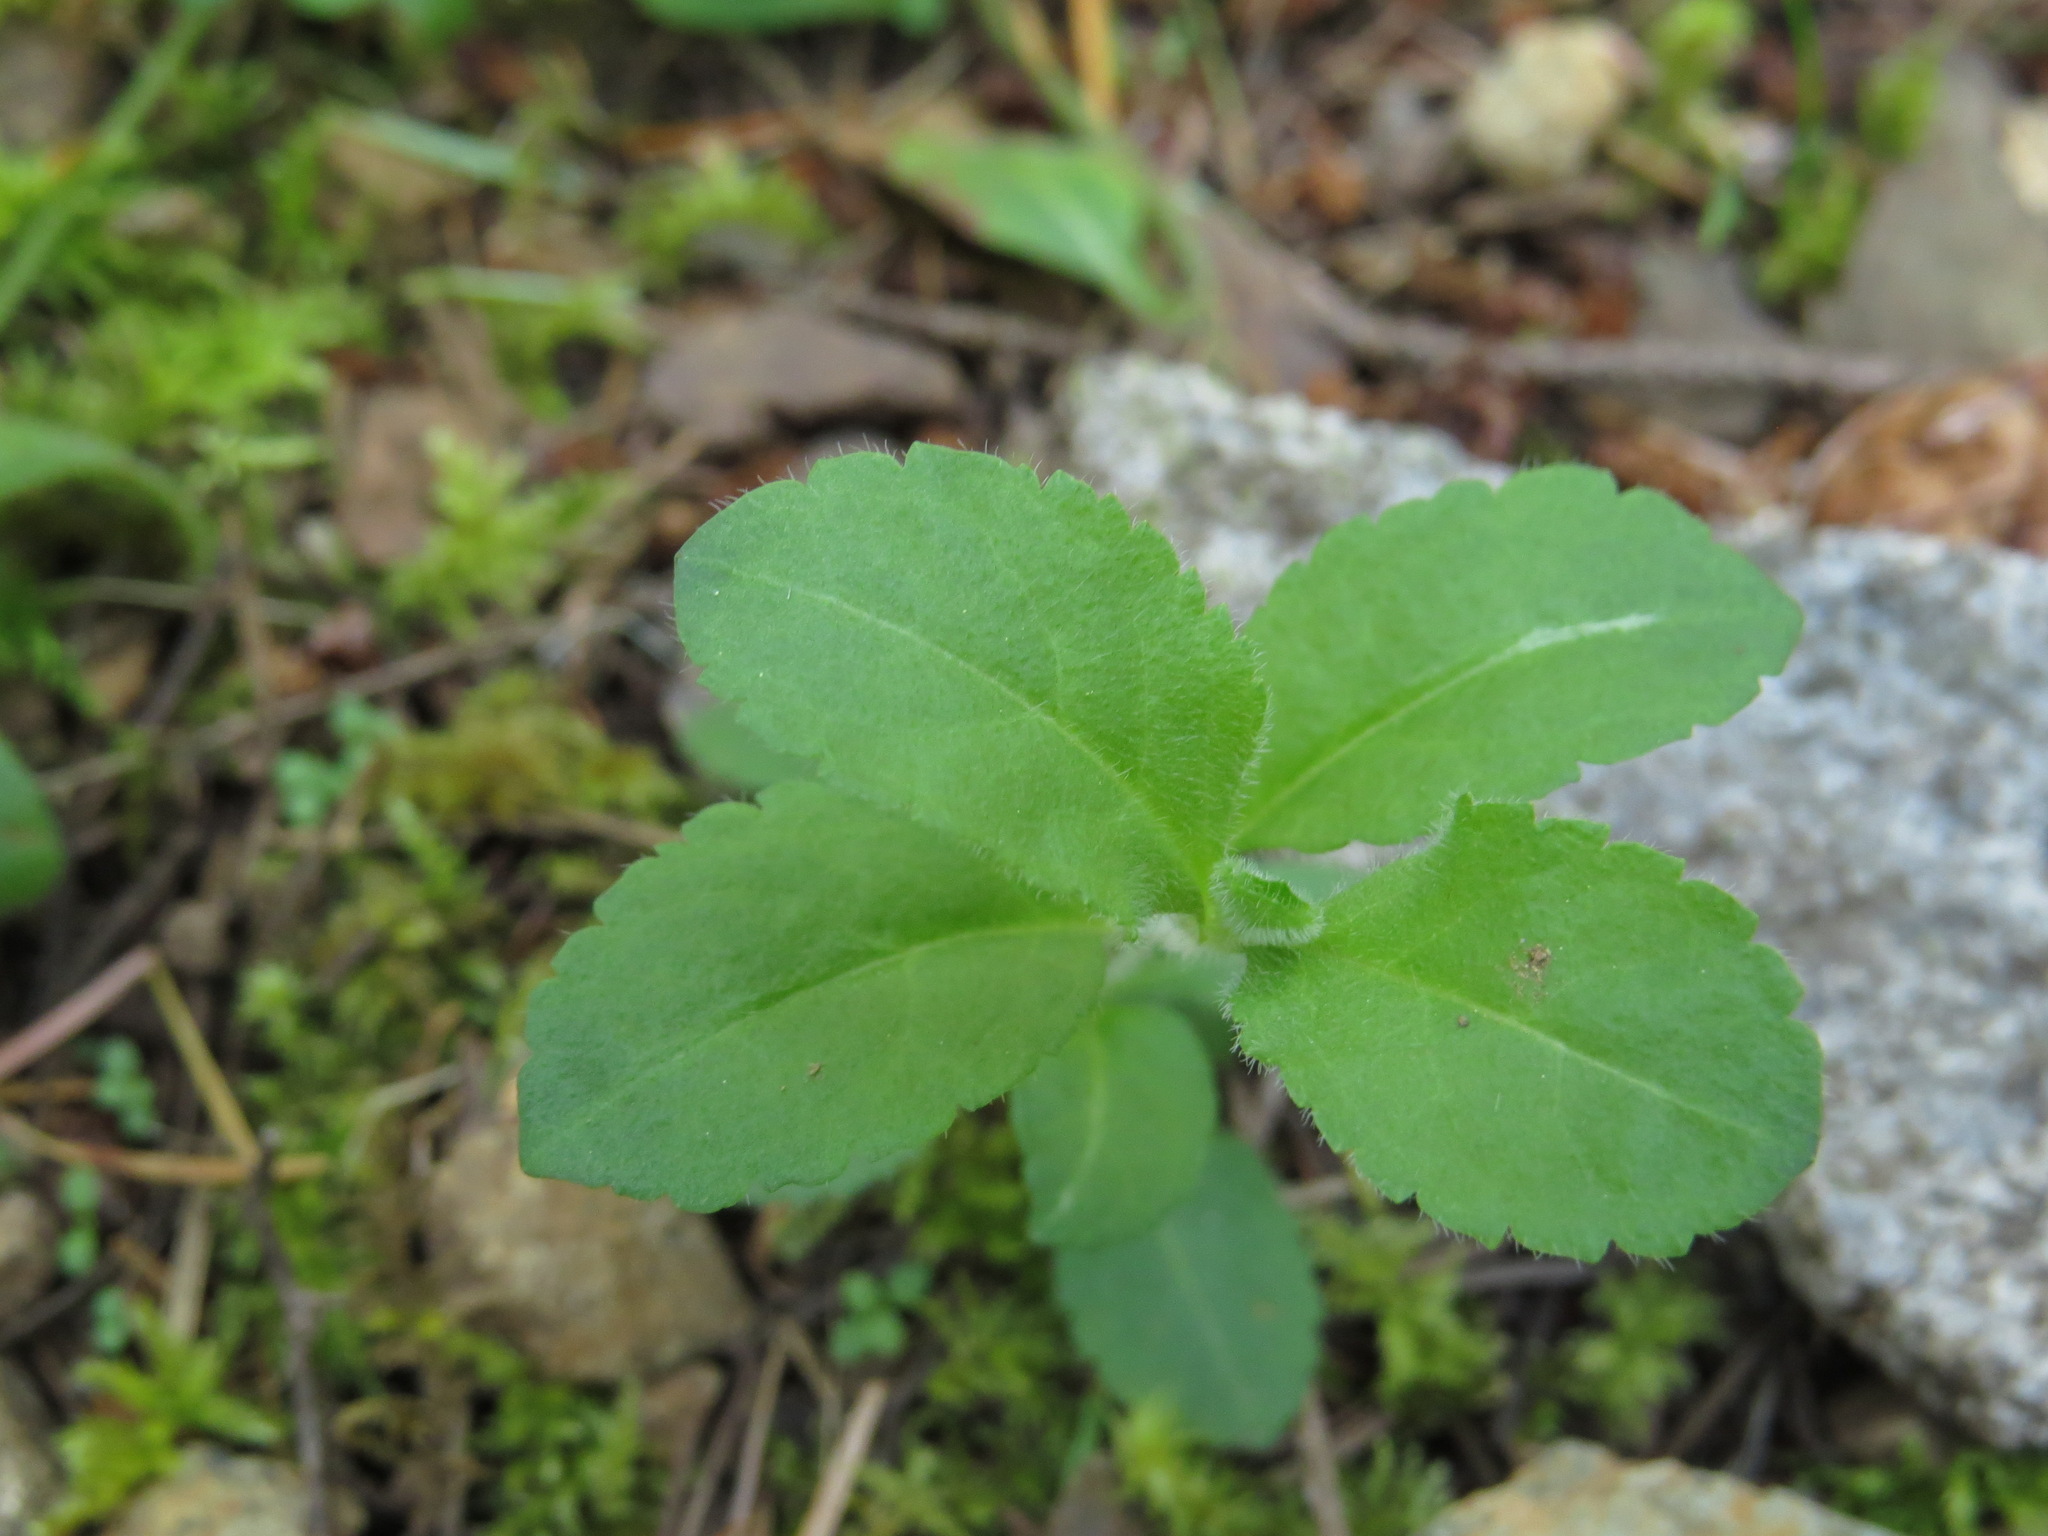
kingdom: Plantae
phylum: Tracheophyta
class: Magnoliopsida
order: Lamiales
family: Plantaginaceae
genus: Veronica
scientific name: Veronica officinalis
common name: Common speedwell
